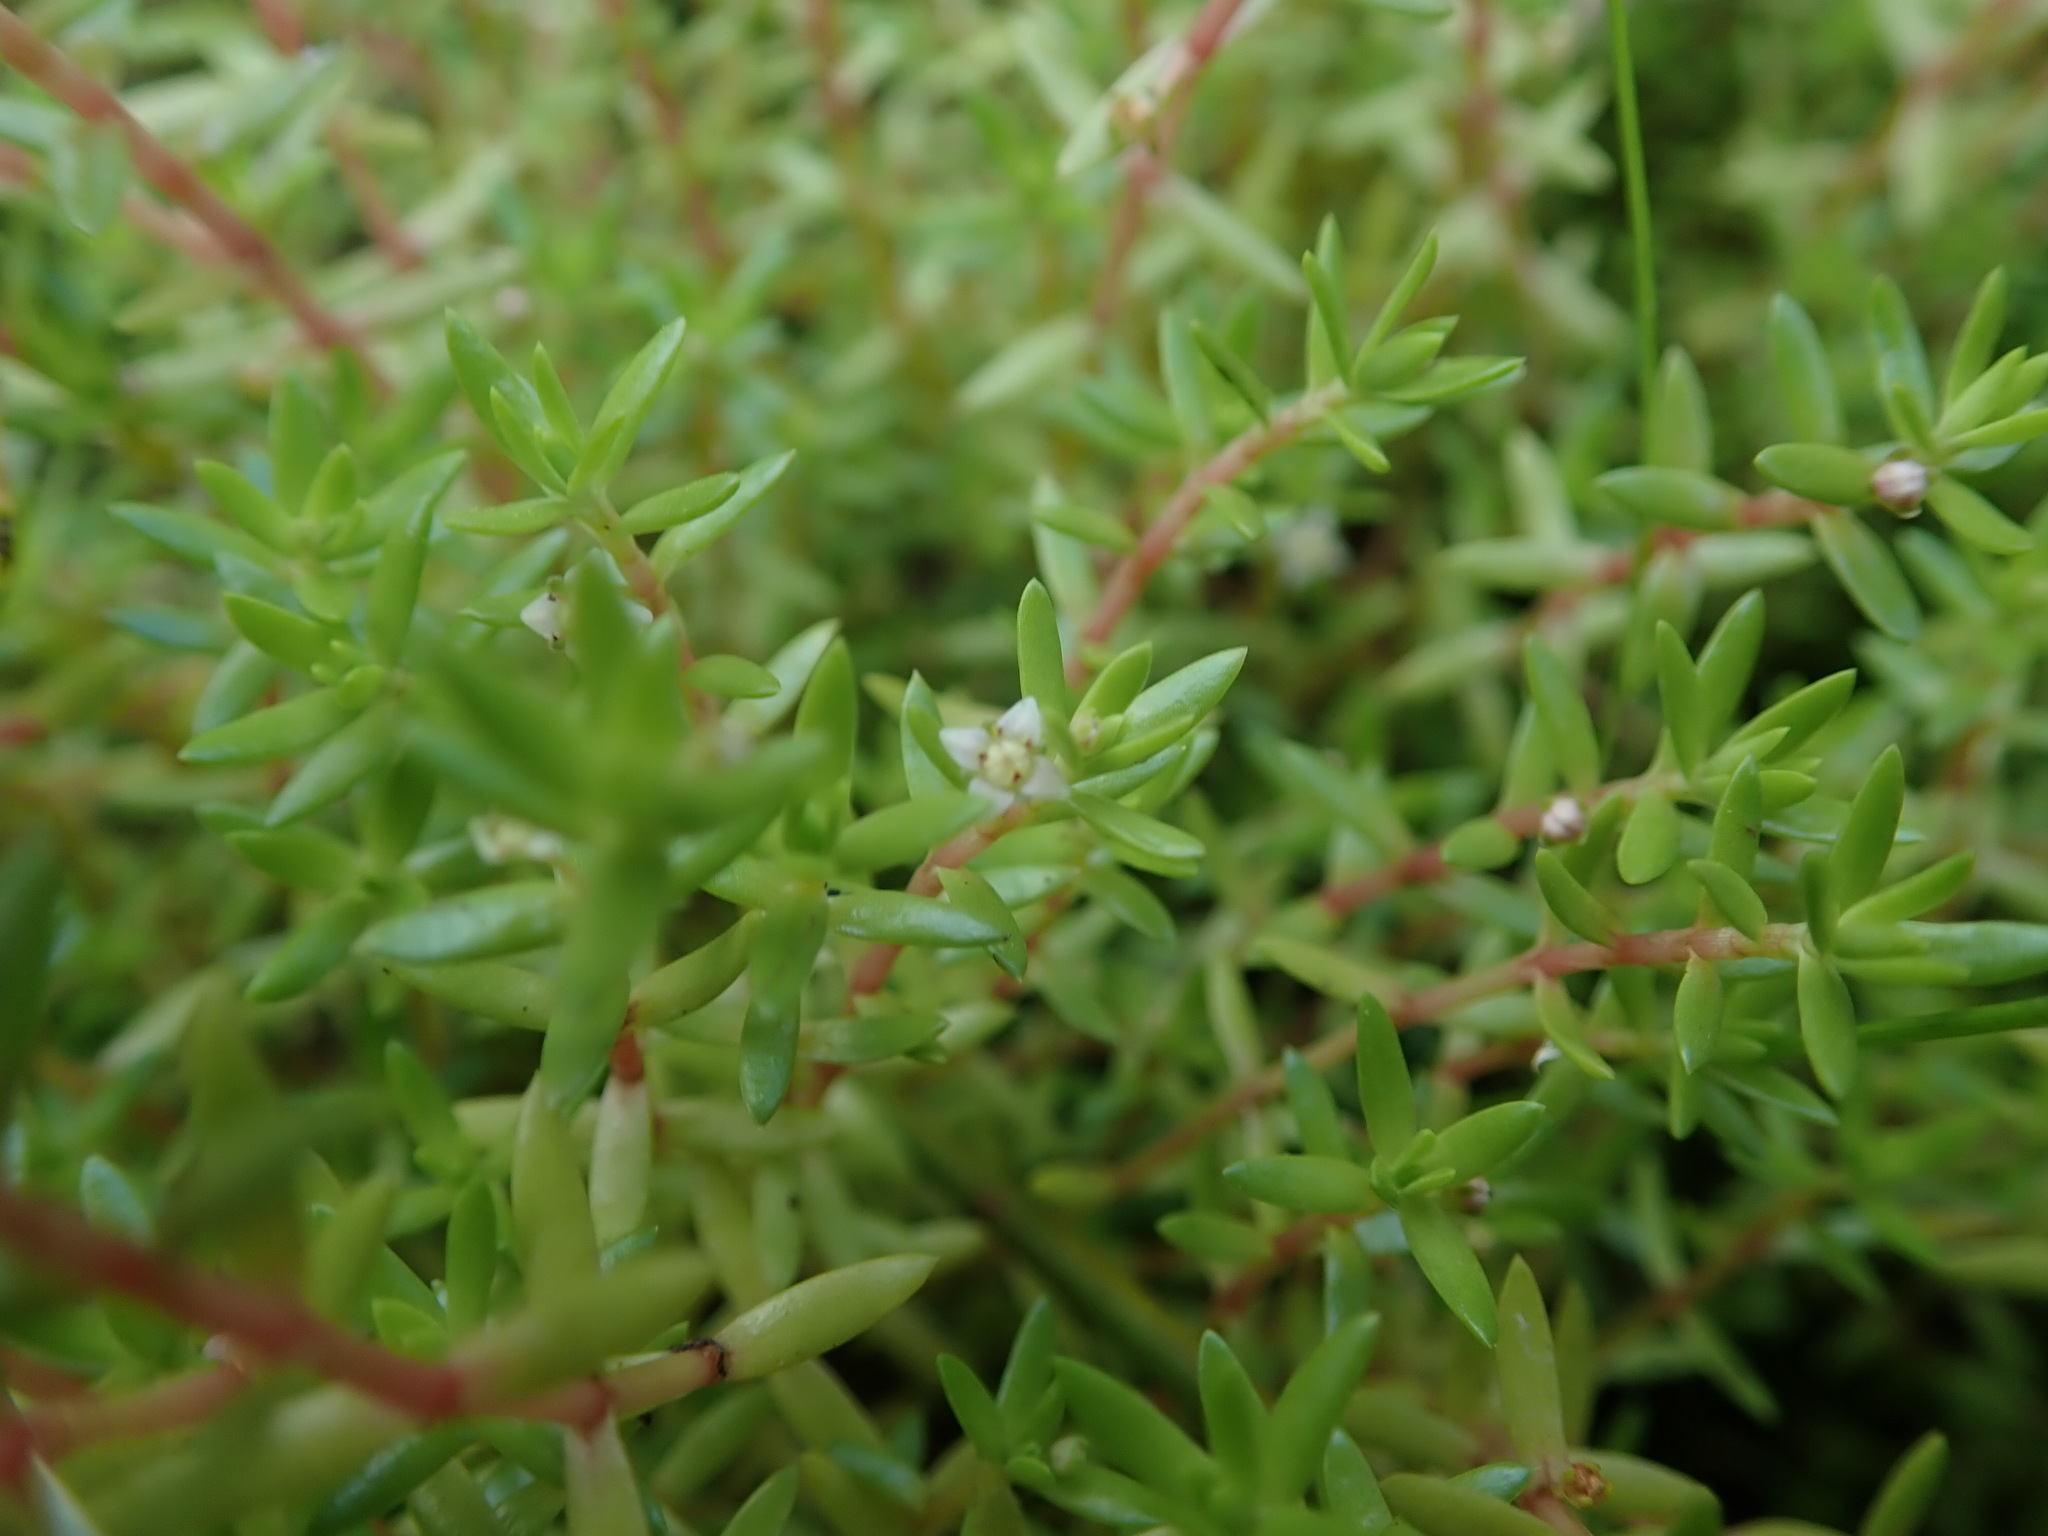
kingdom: Plantae
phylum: Tracheophyta
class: Magnoliopsida
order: Saxifragales
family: Crassulaceae
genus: Crassula
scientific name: Crassula helmsii
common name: New zealand pigmyweed
